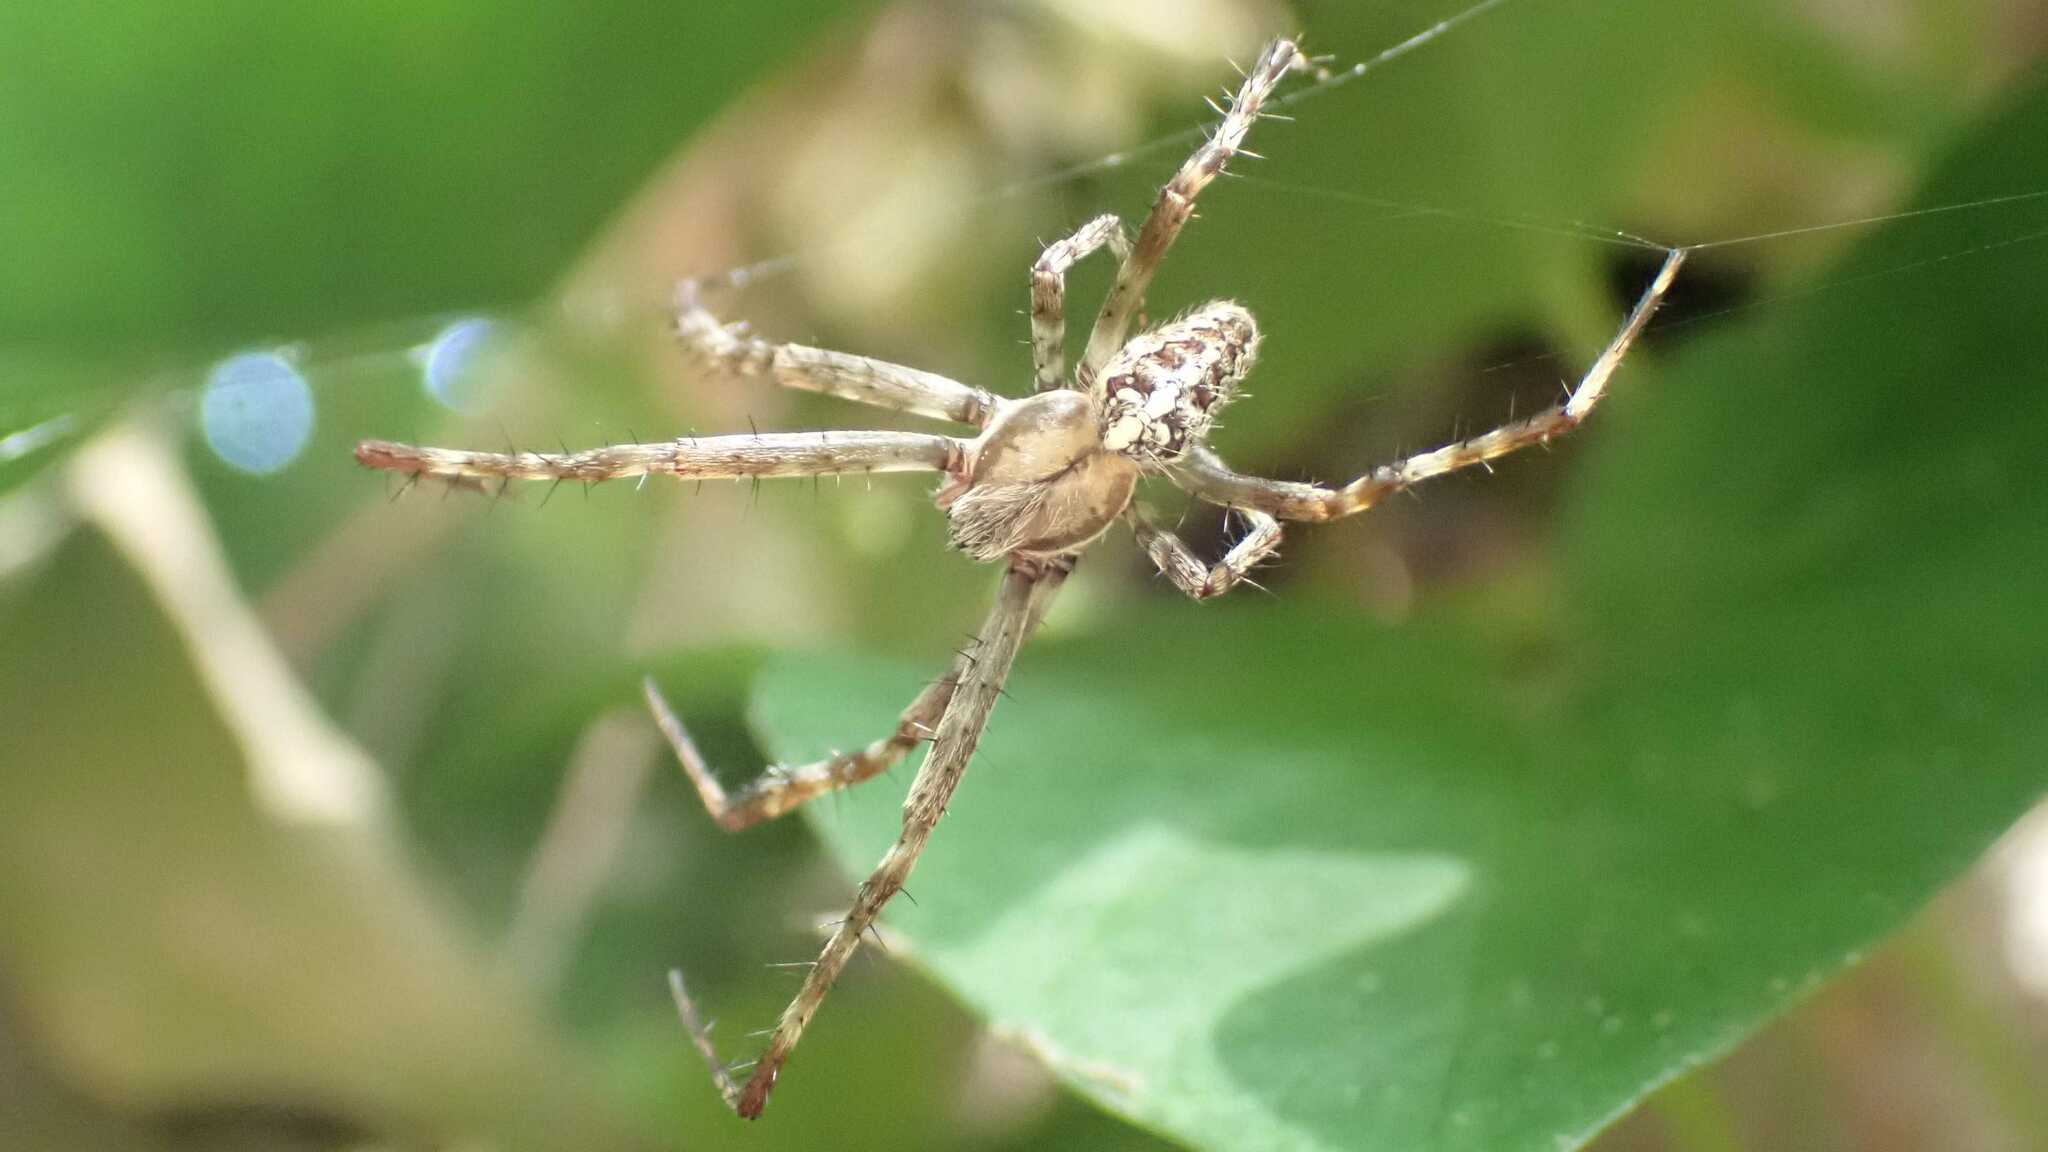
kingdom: Animalia
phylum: Arthropoda
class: Arachnida
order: Araneae
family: Araneidae
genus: Araneus
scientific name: Araneus diadematus
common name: Cross orbweaver
